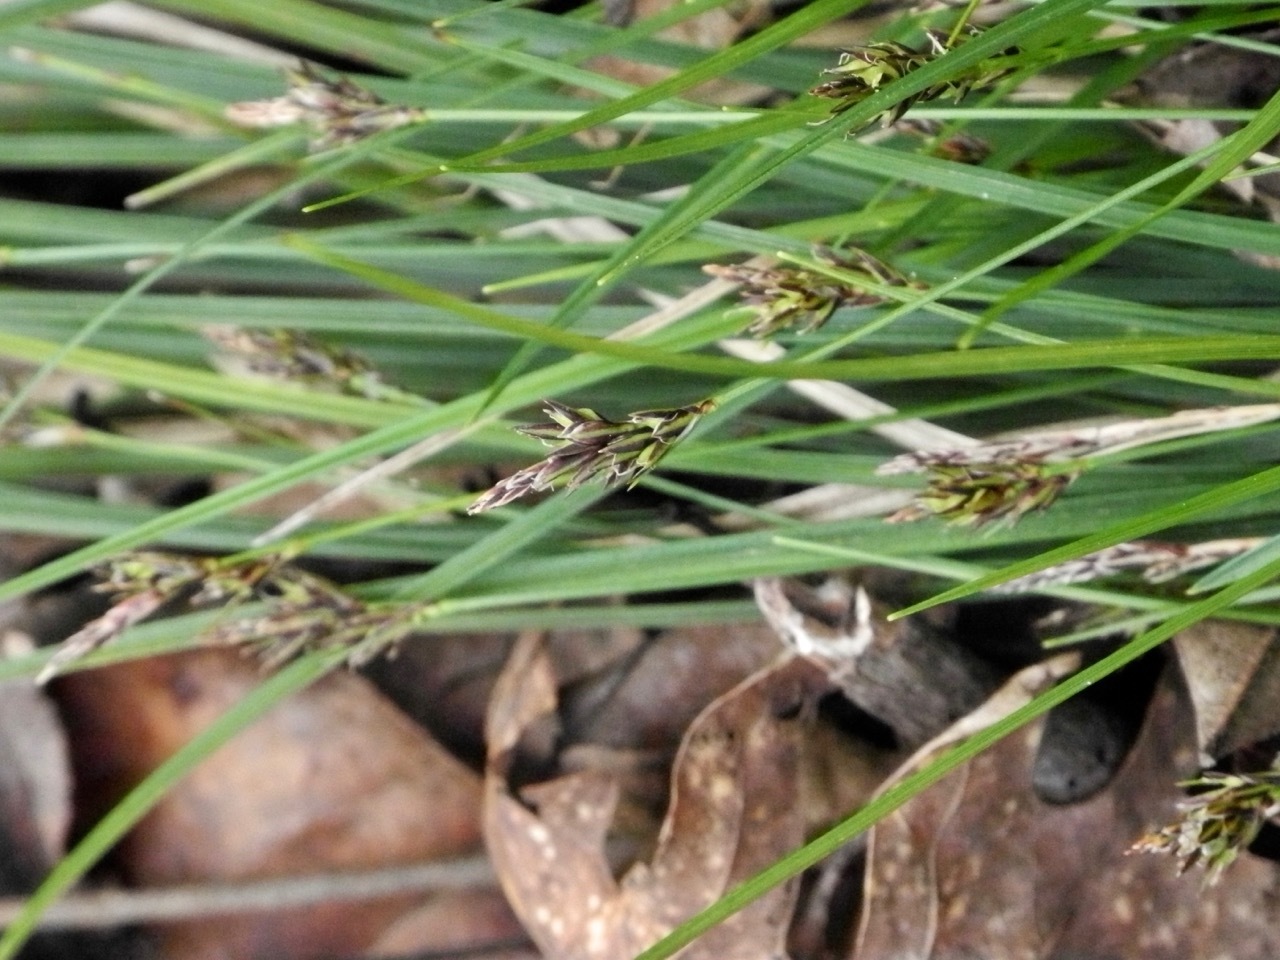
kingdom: Plantae
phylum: Tracheophyta
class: Liliopsida
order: Poales
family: Cyperaceae
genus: Carex
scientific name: Carex nigromarginata
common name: Black-edged sedge
